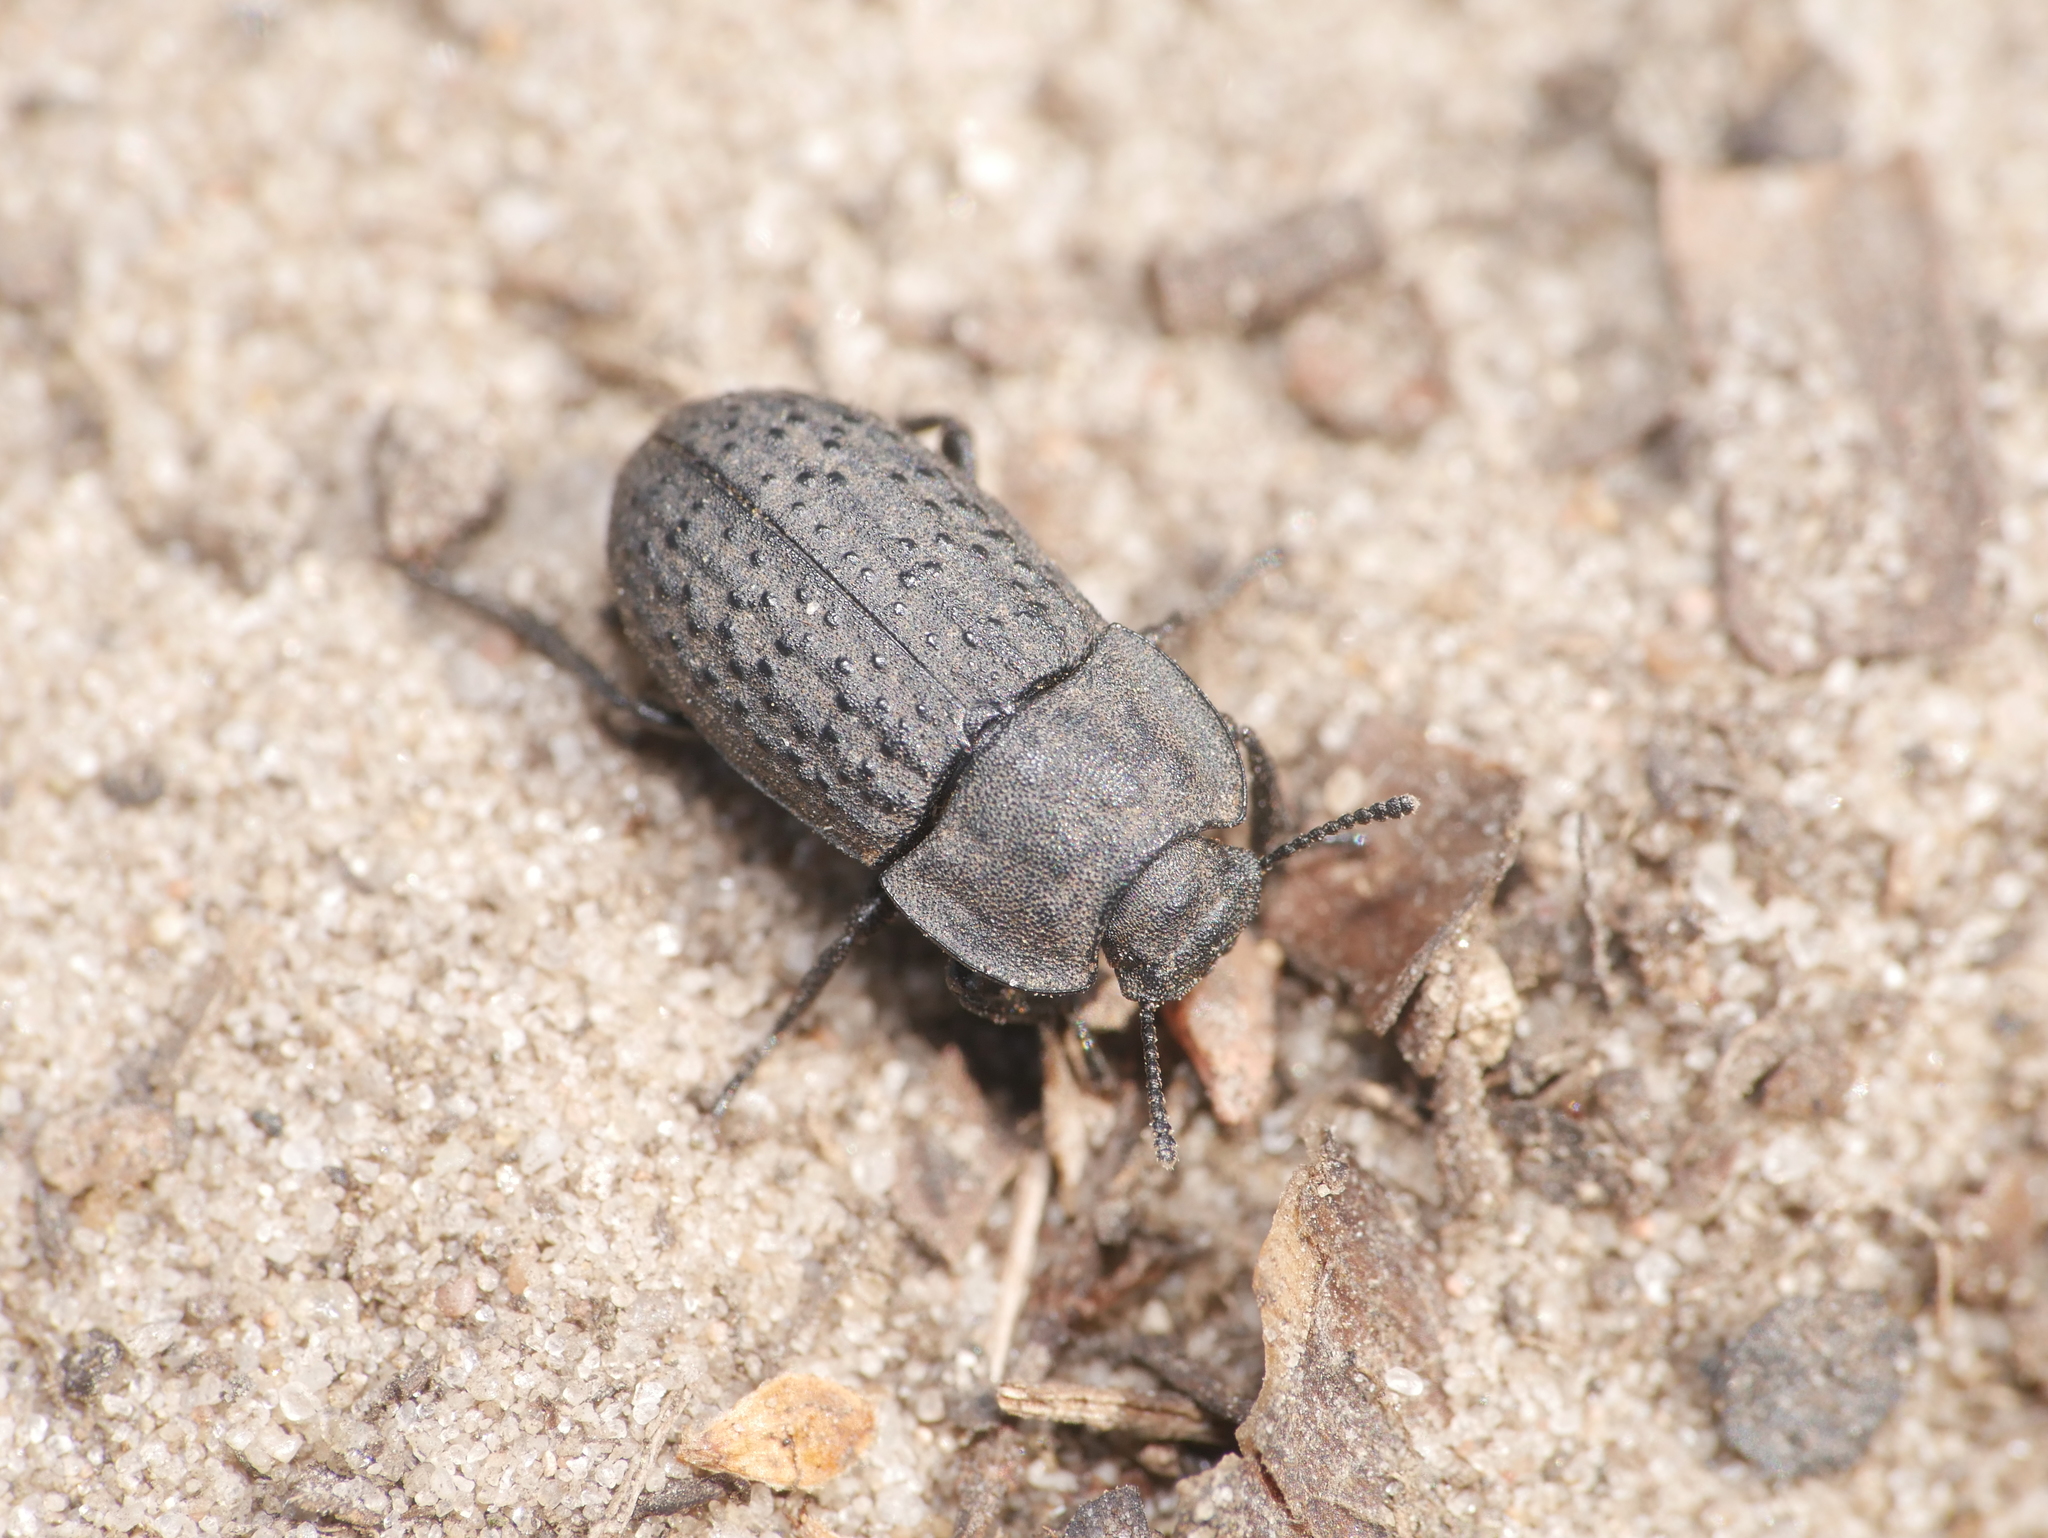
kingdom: Animalia
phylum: Arthropoda
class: Insecta
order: Coleoptera
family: Tenebrionidae
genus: Opatrum
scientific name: Opatrum sabulosum
